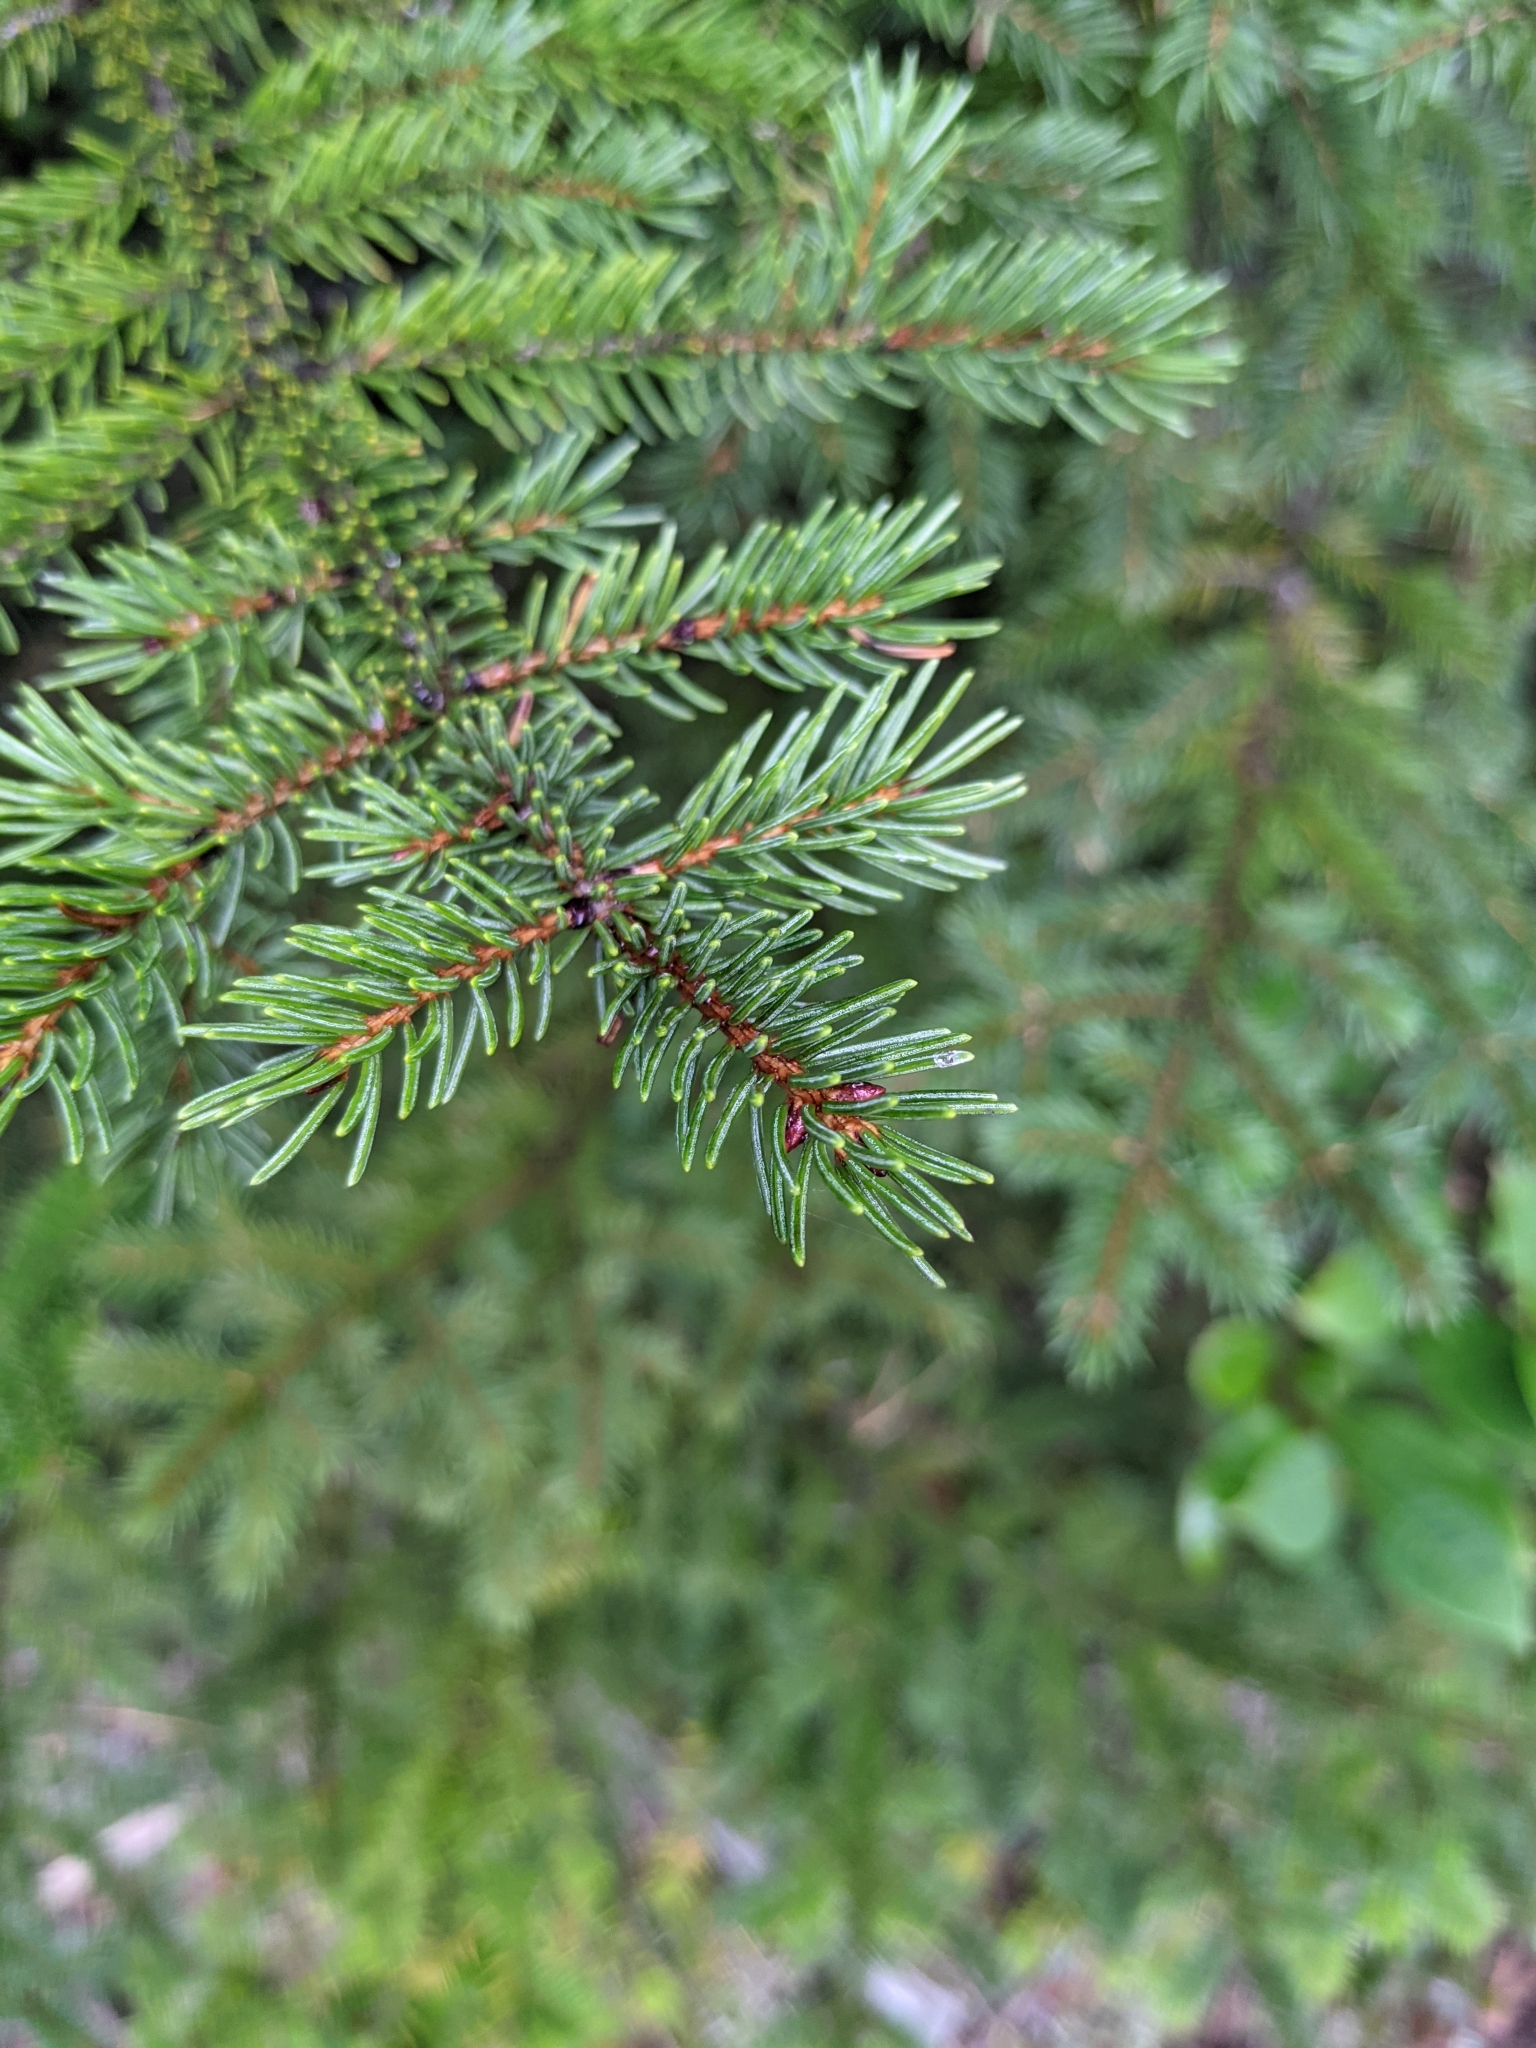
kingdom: Plantae
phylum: Tracheophyta
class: Pinopsida
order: Pinales
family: Pinaceae
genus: Picea
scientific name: Picea rubens
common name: Red spruce
